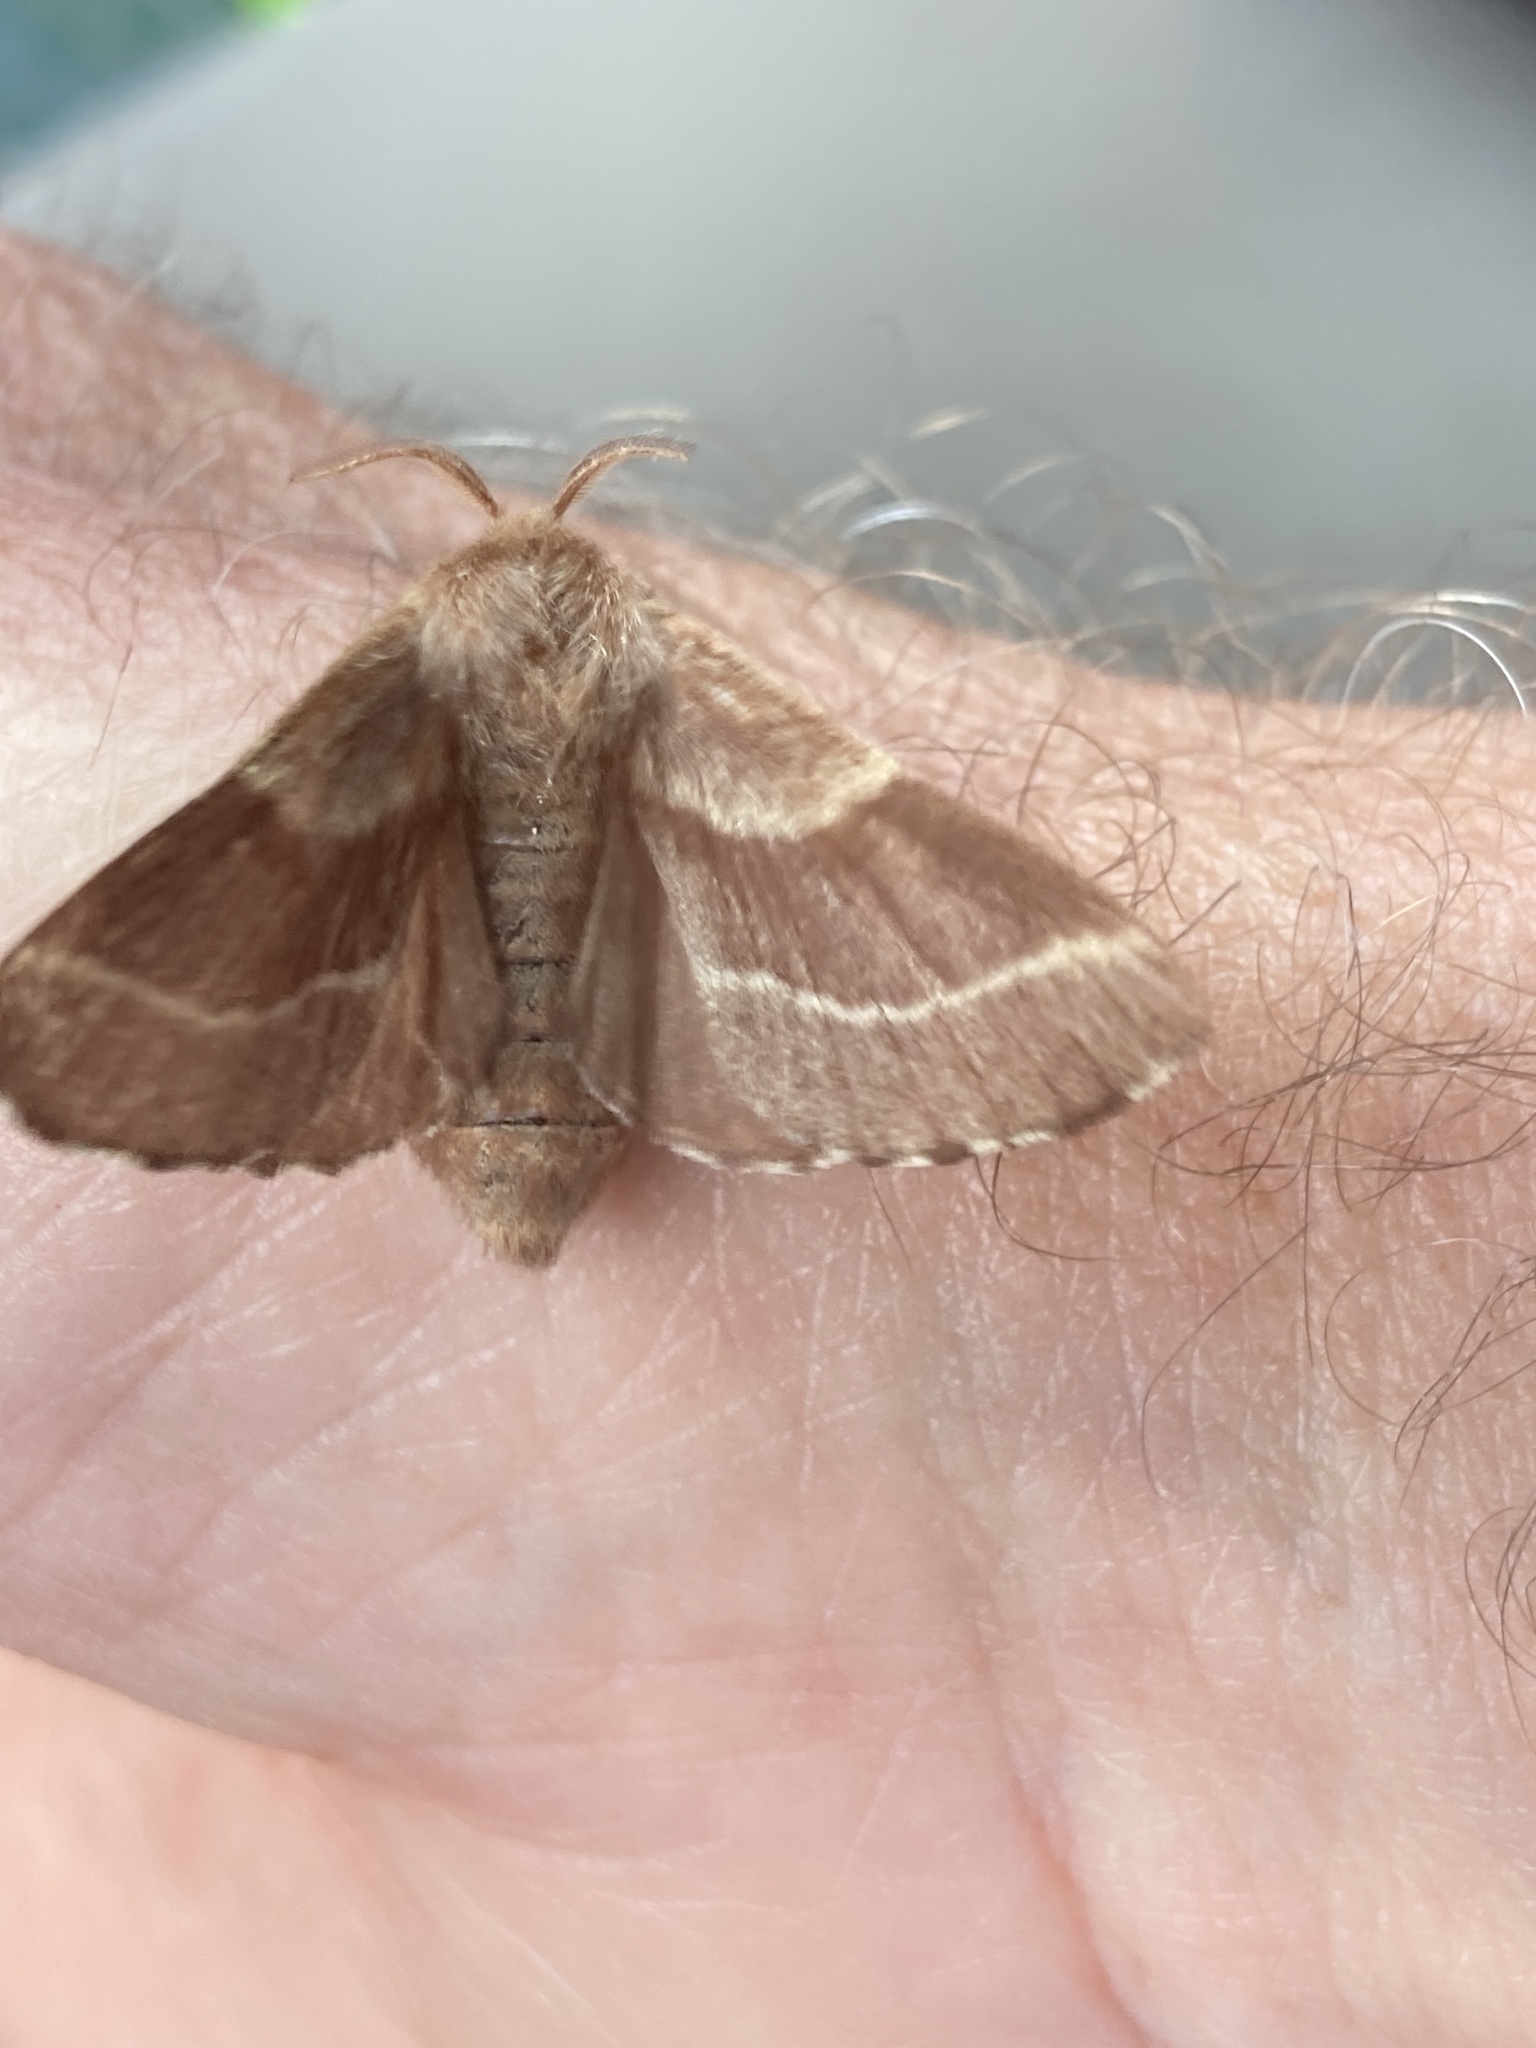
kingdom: Animalia
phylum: Arthropoda
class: Insecta
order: Lepidoptera
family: Lasiocampidae
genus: Malacosoma
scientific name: Malacosoma americana
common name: Eastern tent caterpillar moth
